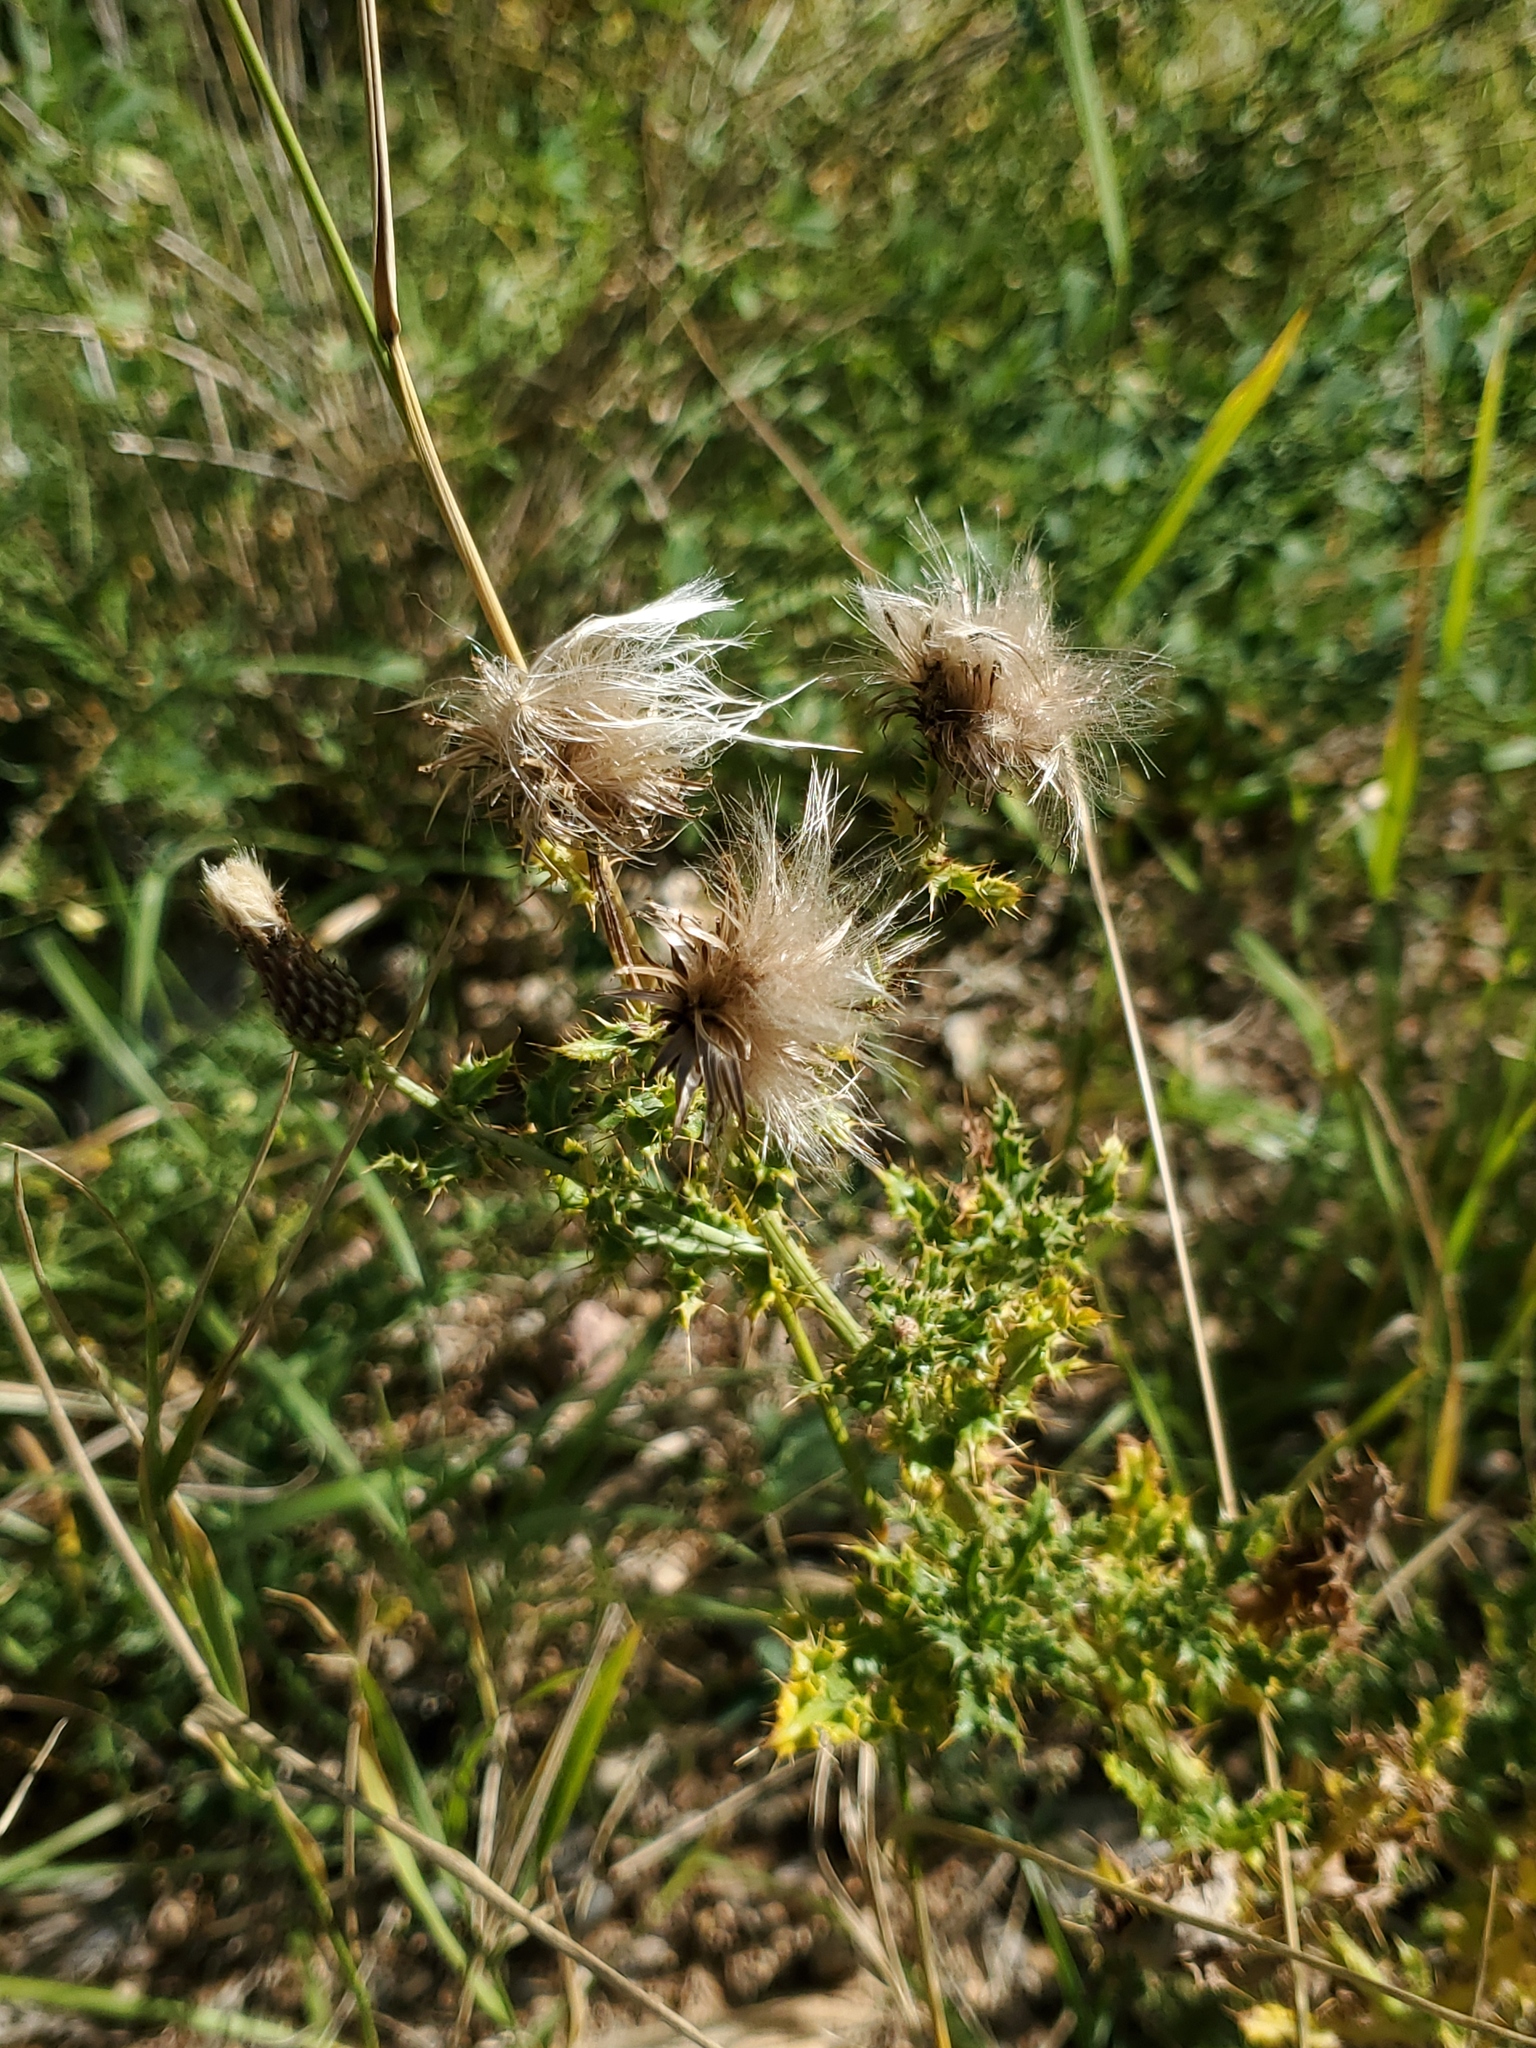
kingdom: Plantae
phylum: Tracheophyta
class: Magnoliopsida
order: Asterales
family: Asteraceae
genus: Cirsium
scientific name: Cirsium arvense
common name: Creeping thistle
